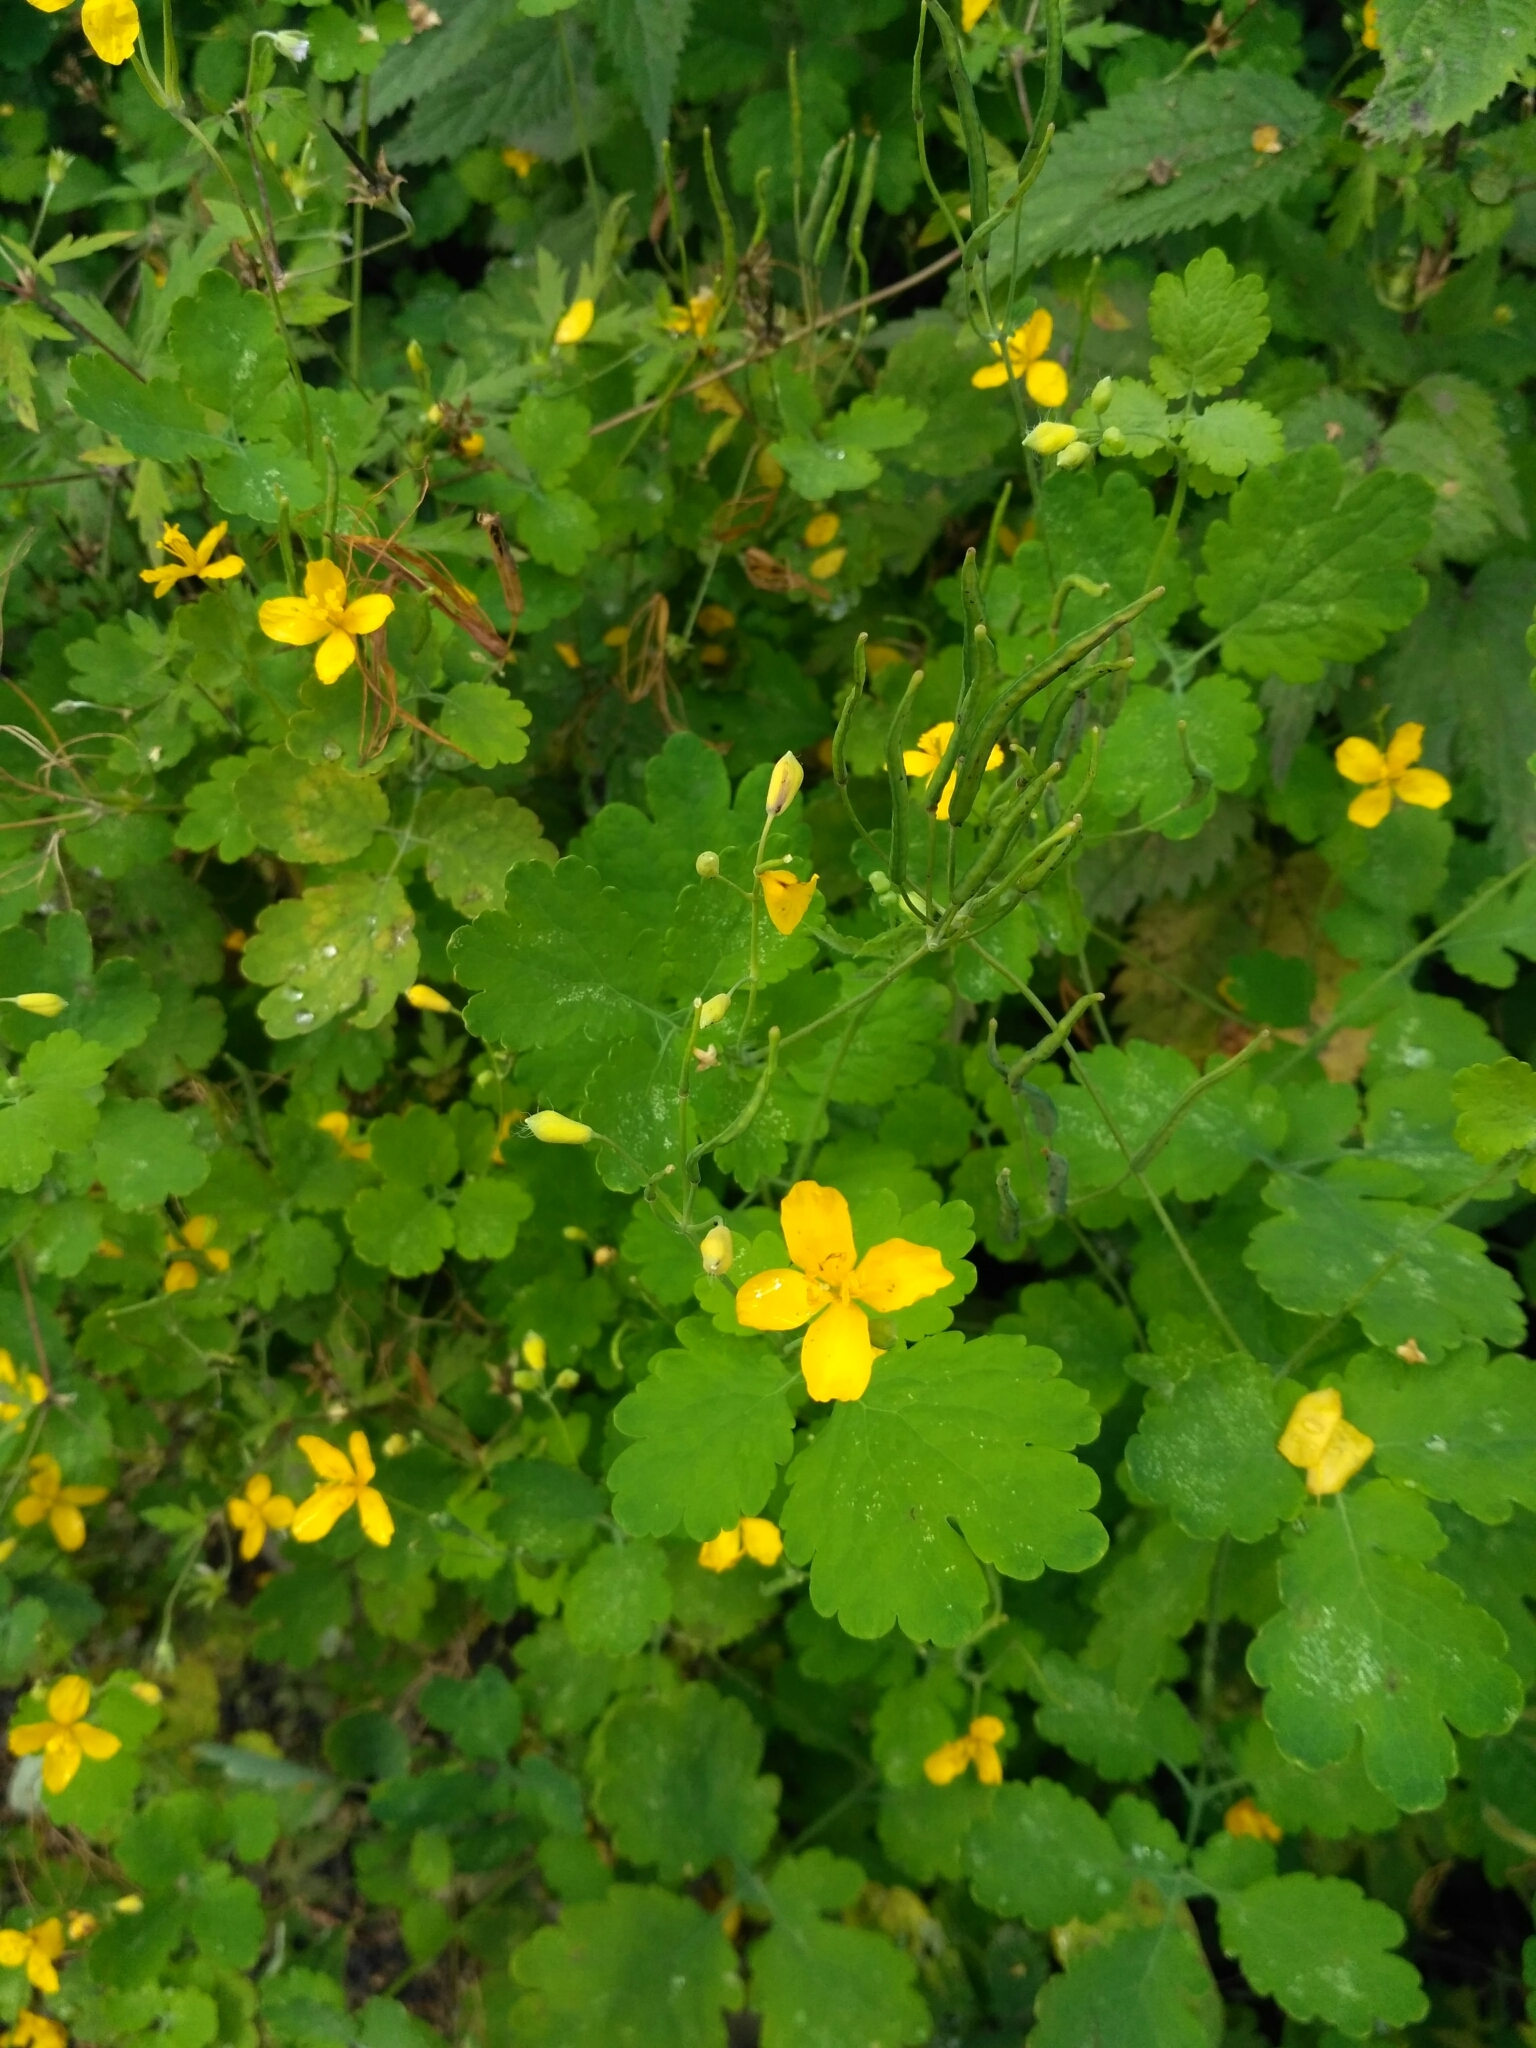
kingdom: Plantae
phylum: Tracheophyta
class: Magnoliopsida
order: Ranunculales
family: Papaveraceae
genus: Chelidonium
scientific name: Chelidonium majus
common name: Greater celandine
